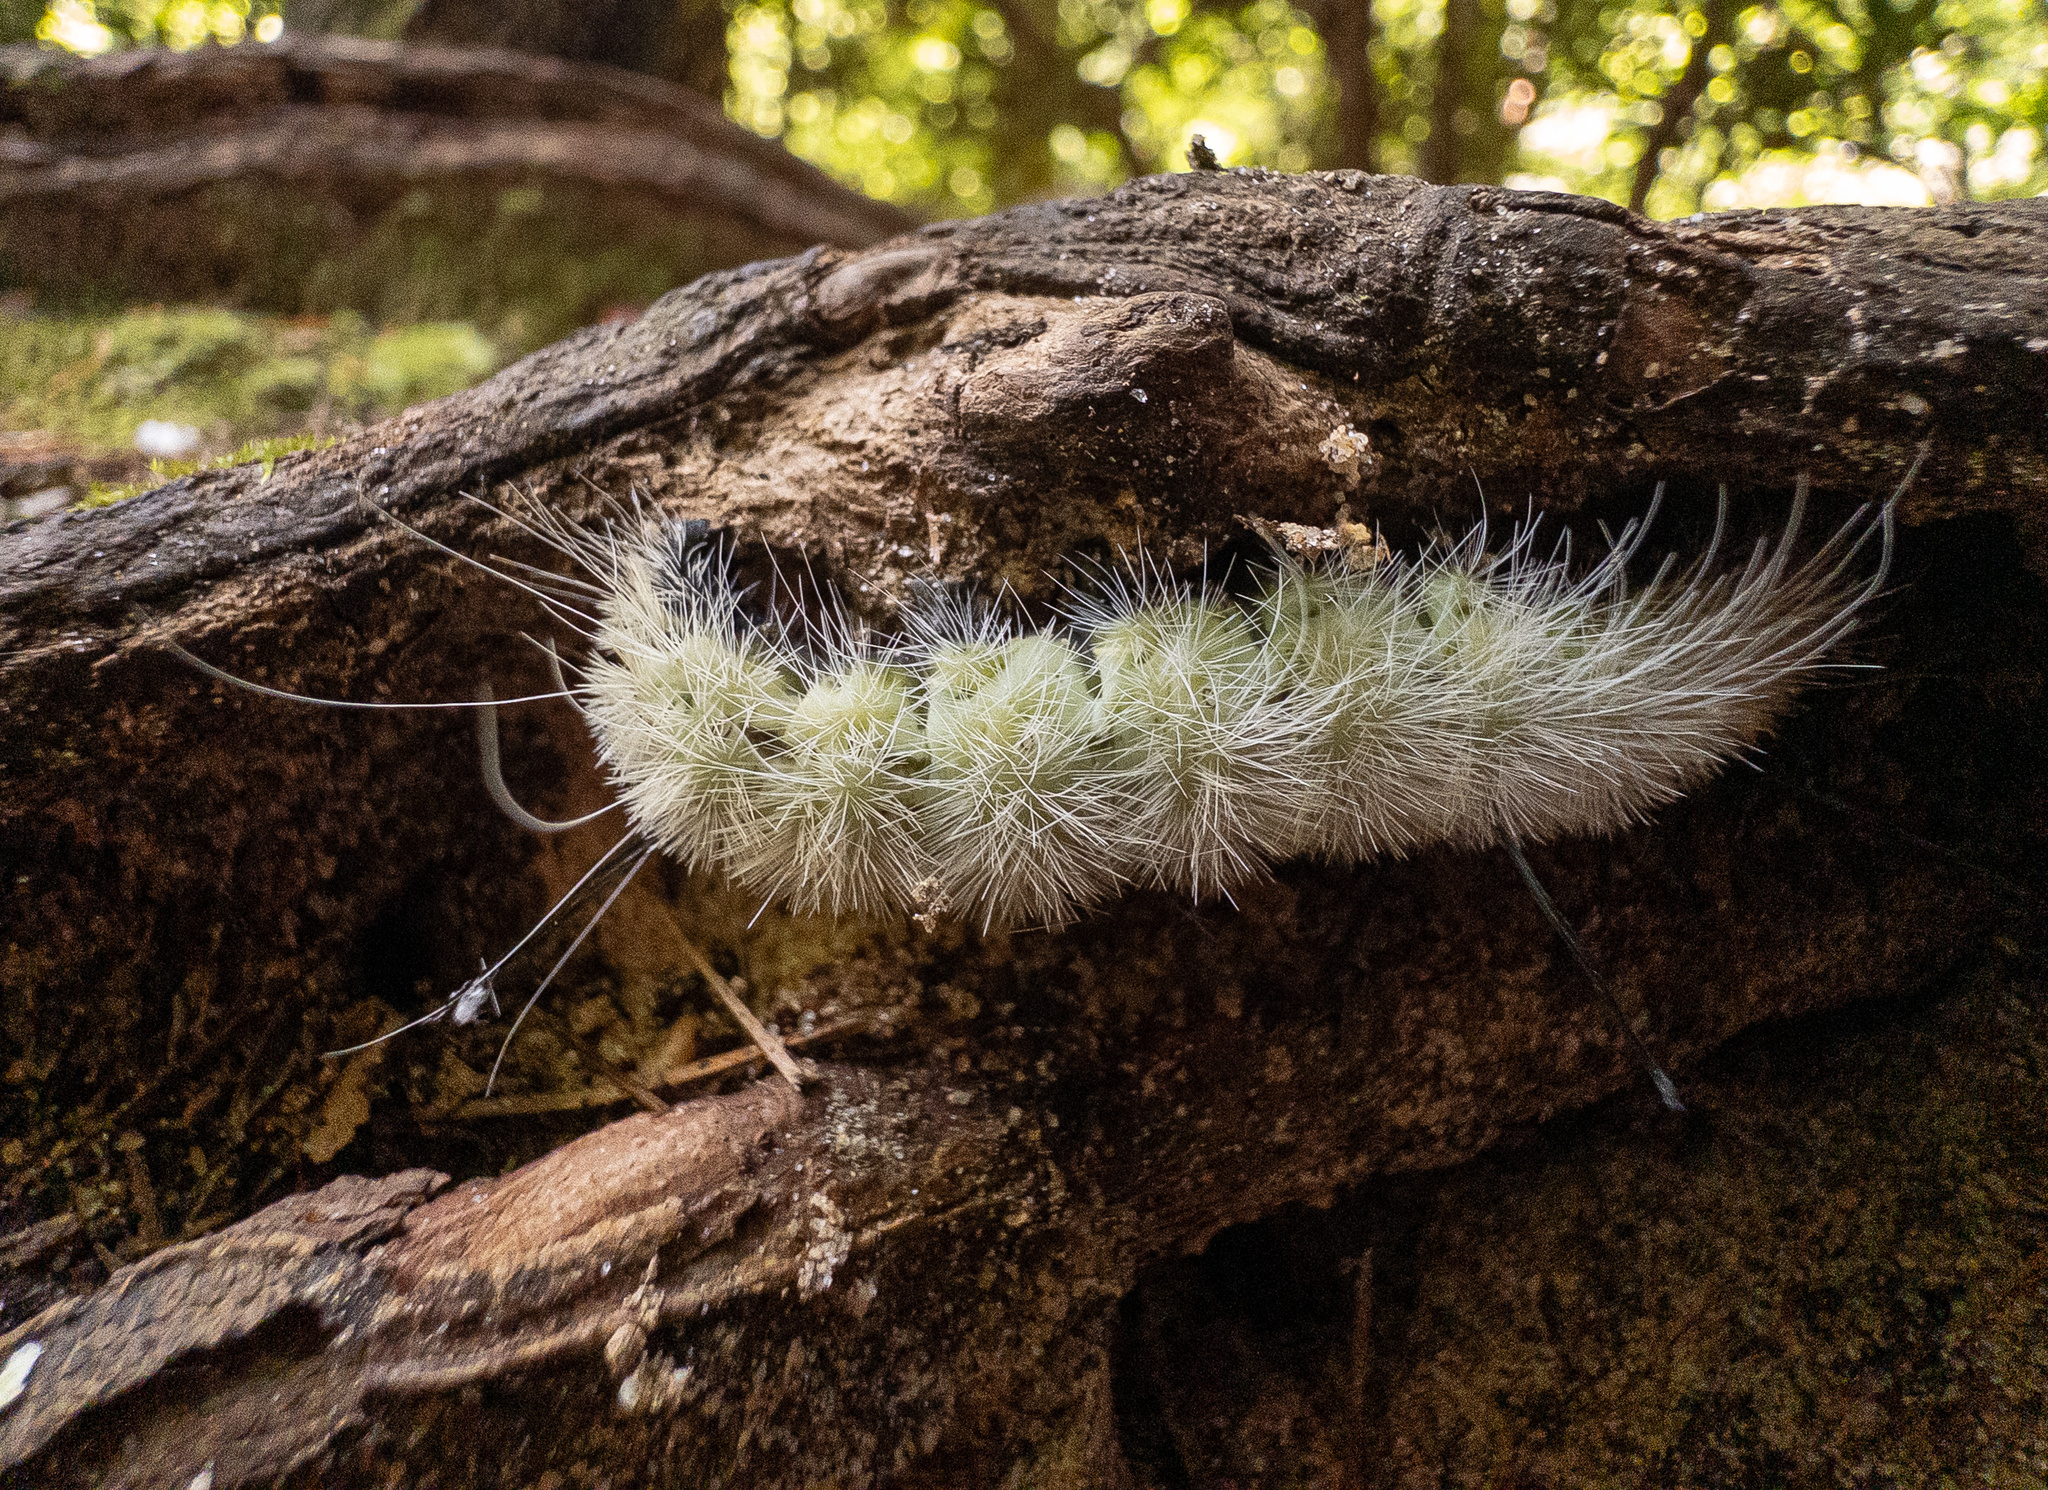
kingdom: Animalia
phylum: Arthropoda
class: Insecta
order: Lepidoptera
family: Noctuidae
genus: Acronicta
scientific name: Acronicta americana
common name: American dagger
